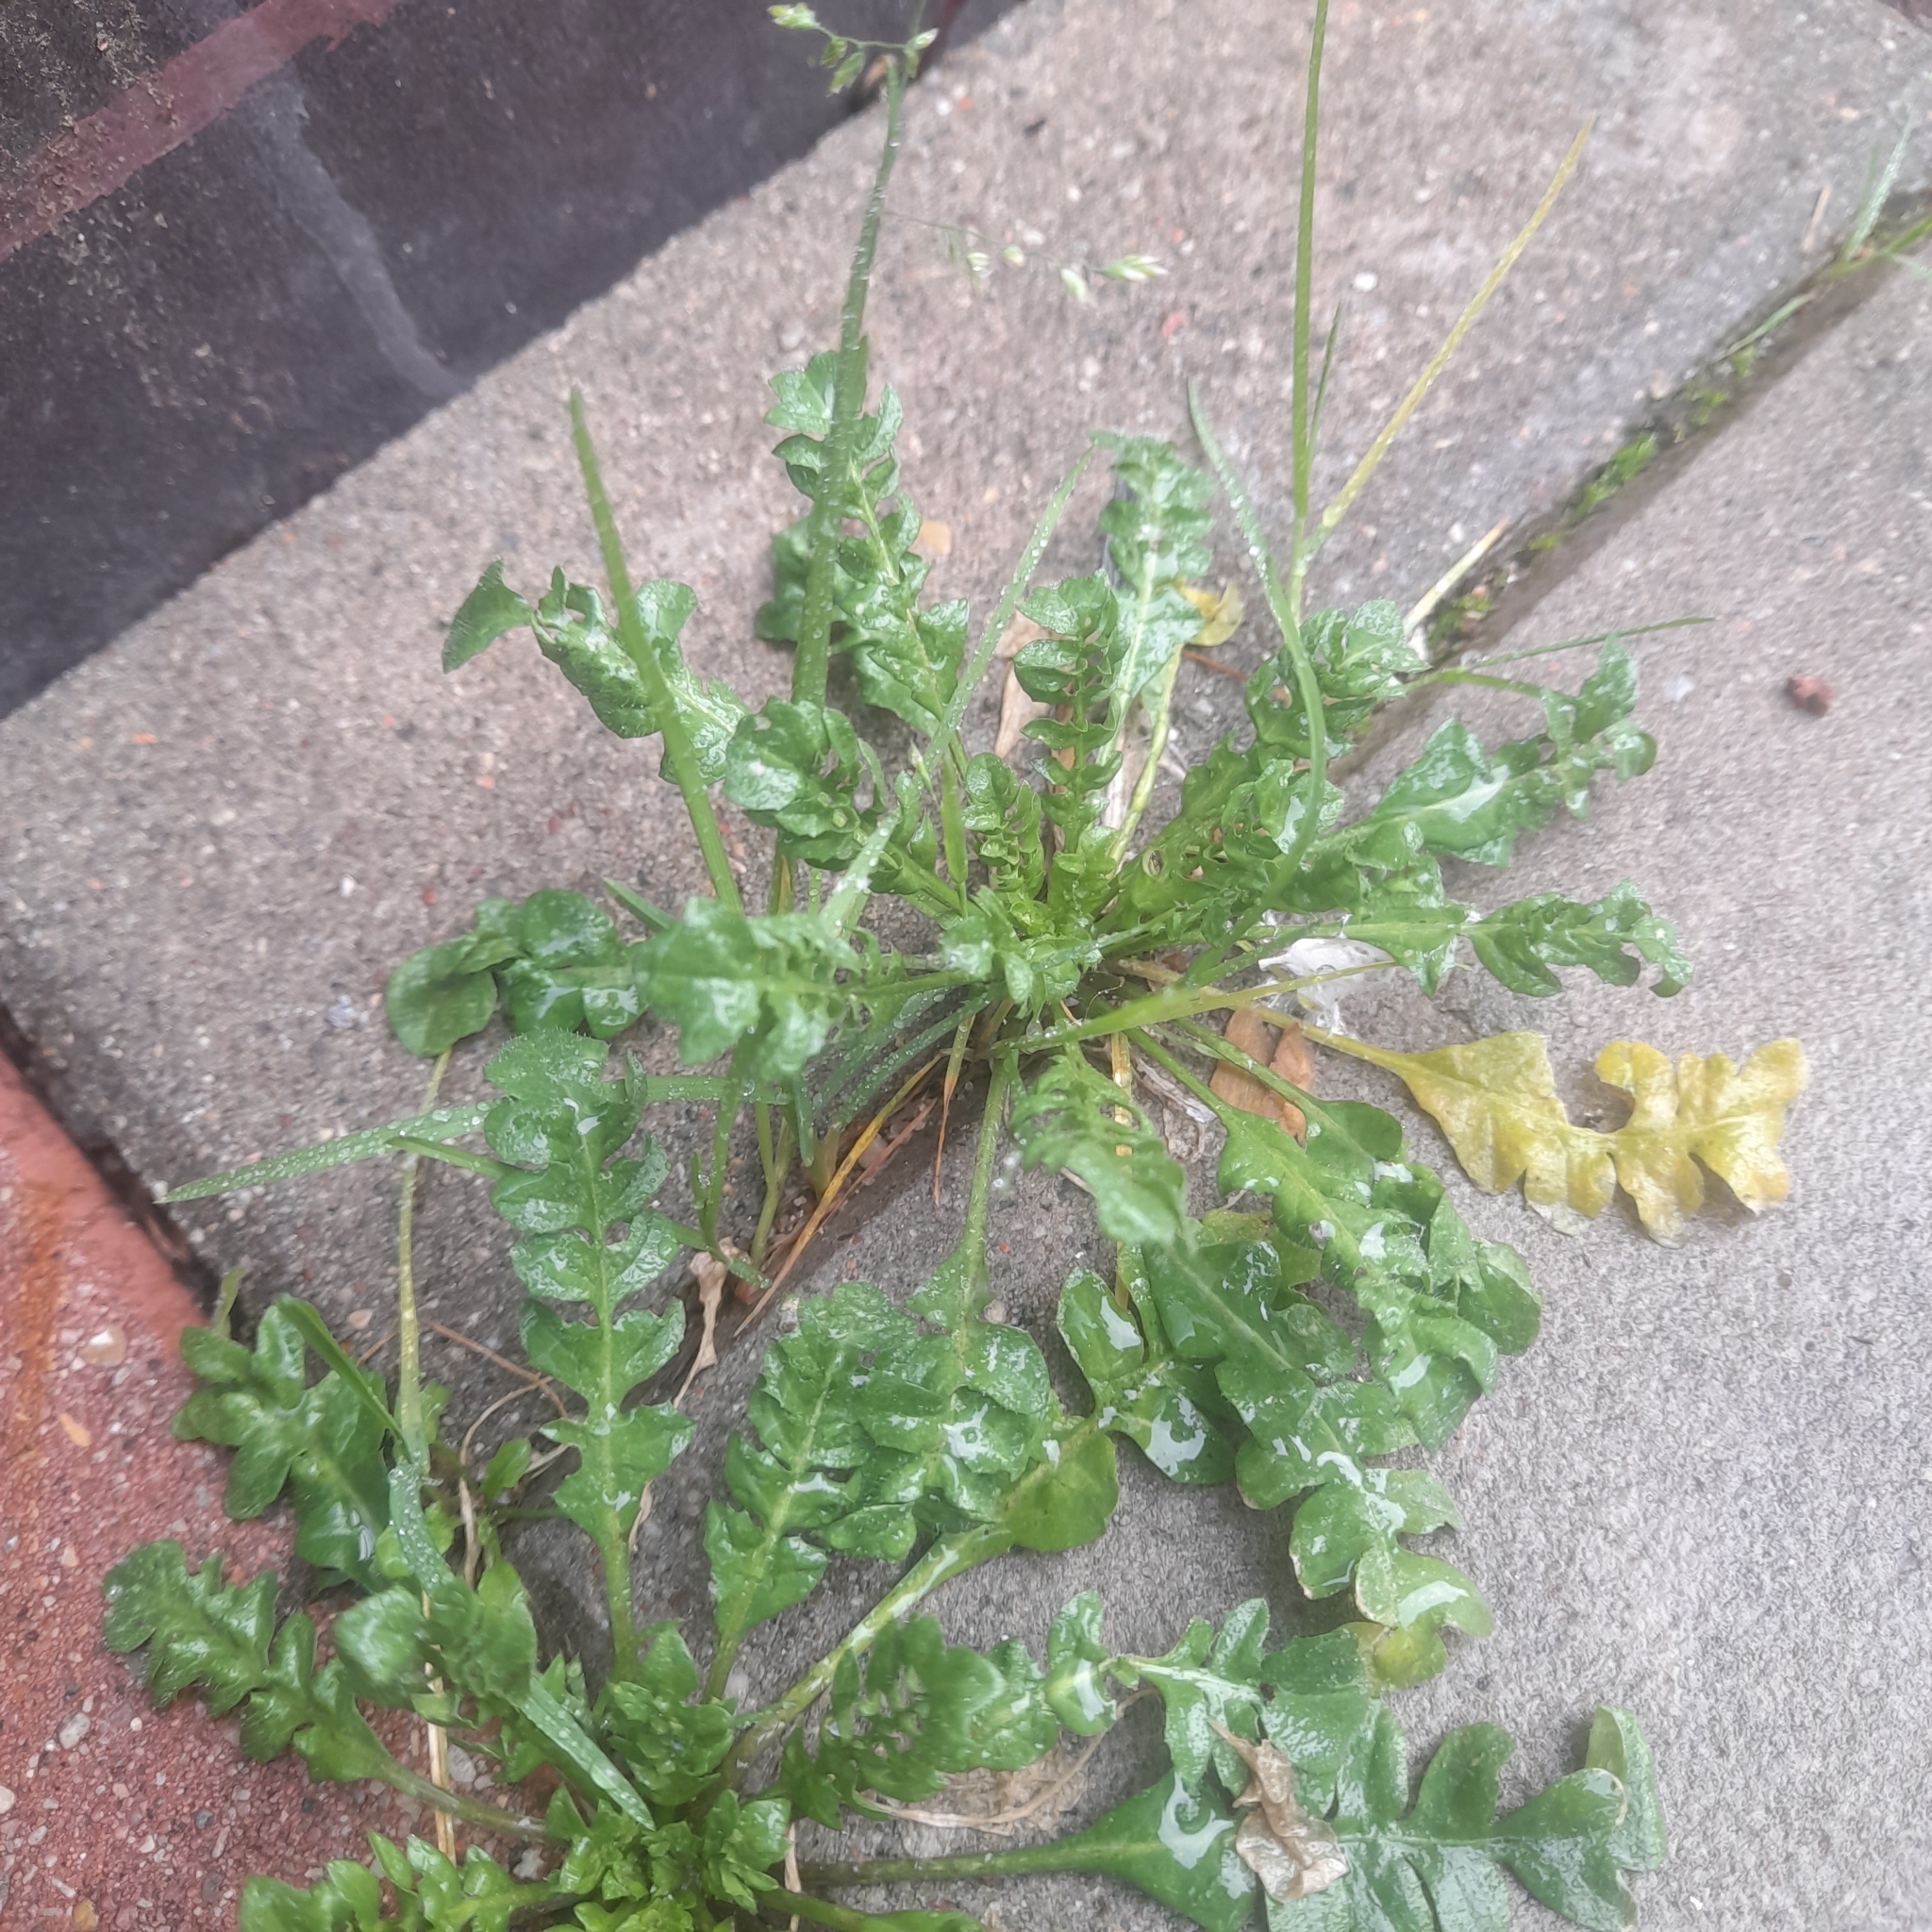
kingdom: Plantae
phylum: Tracheophyta
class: Magnoliopsida
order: Brassicales
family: Brassicaceae
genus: Capsella
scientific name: Capsella bursa-pastoris
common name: Shepherd's purse
